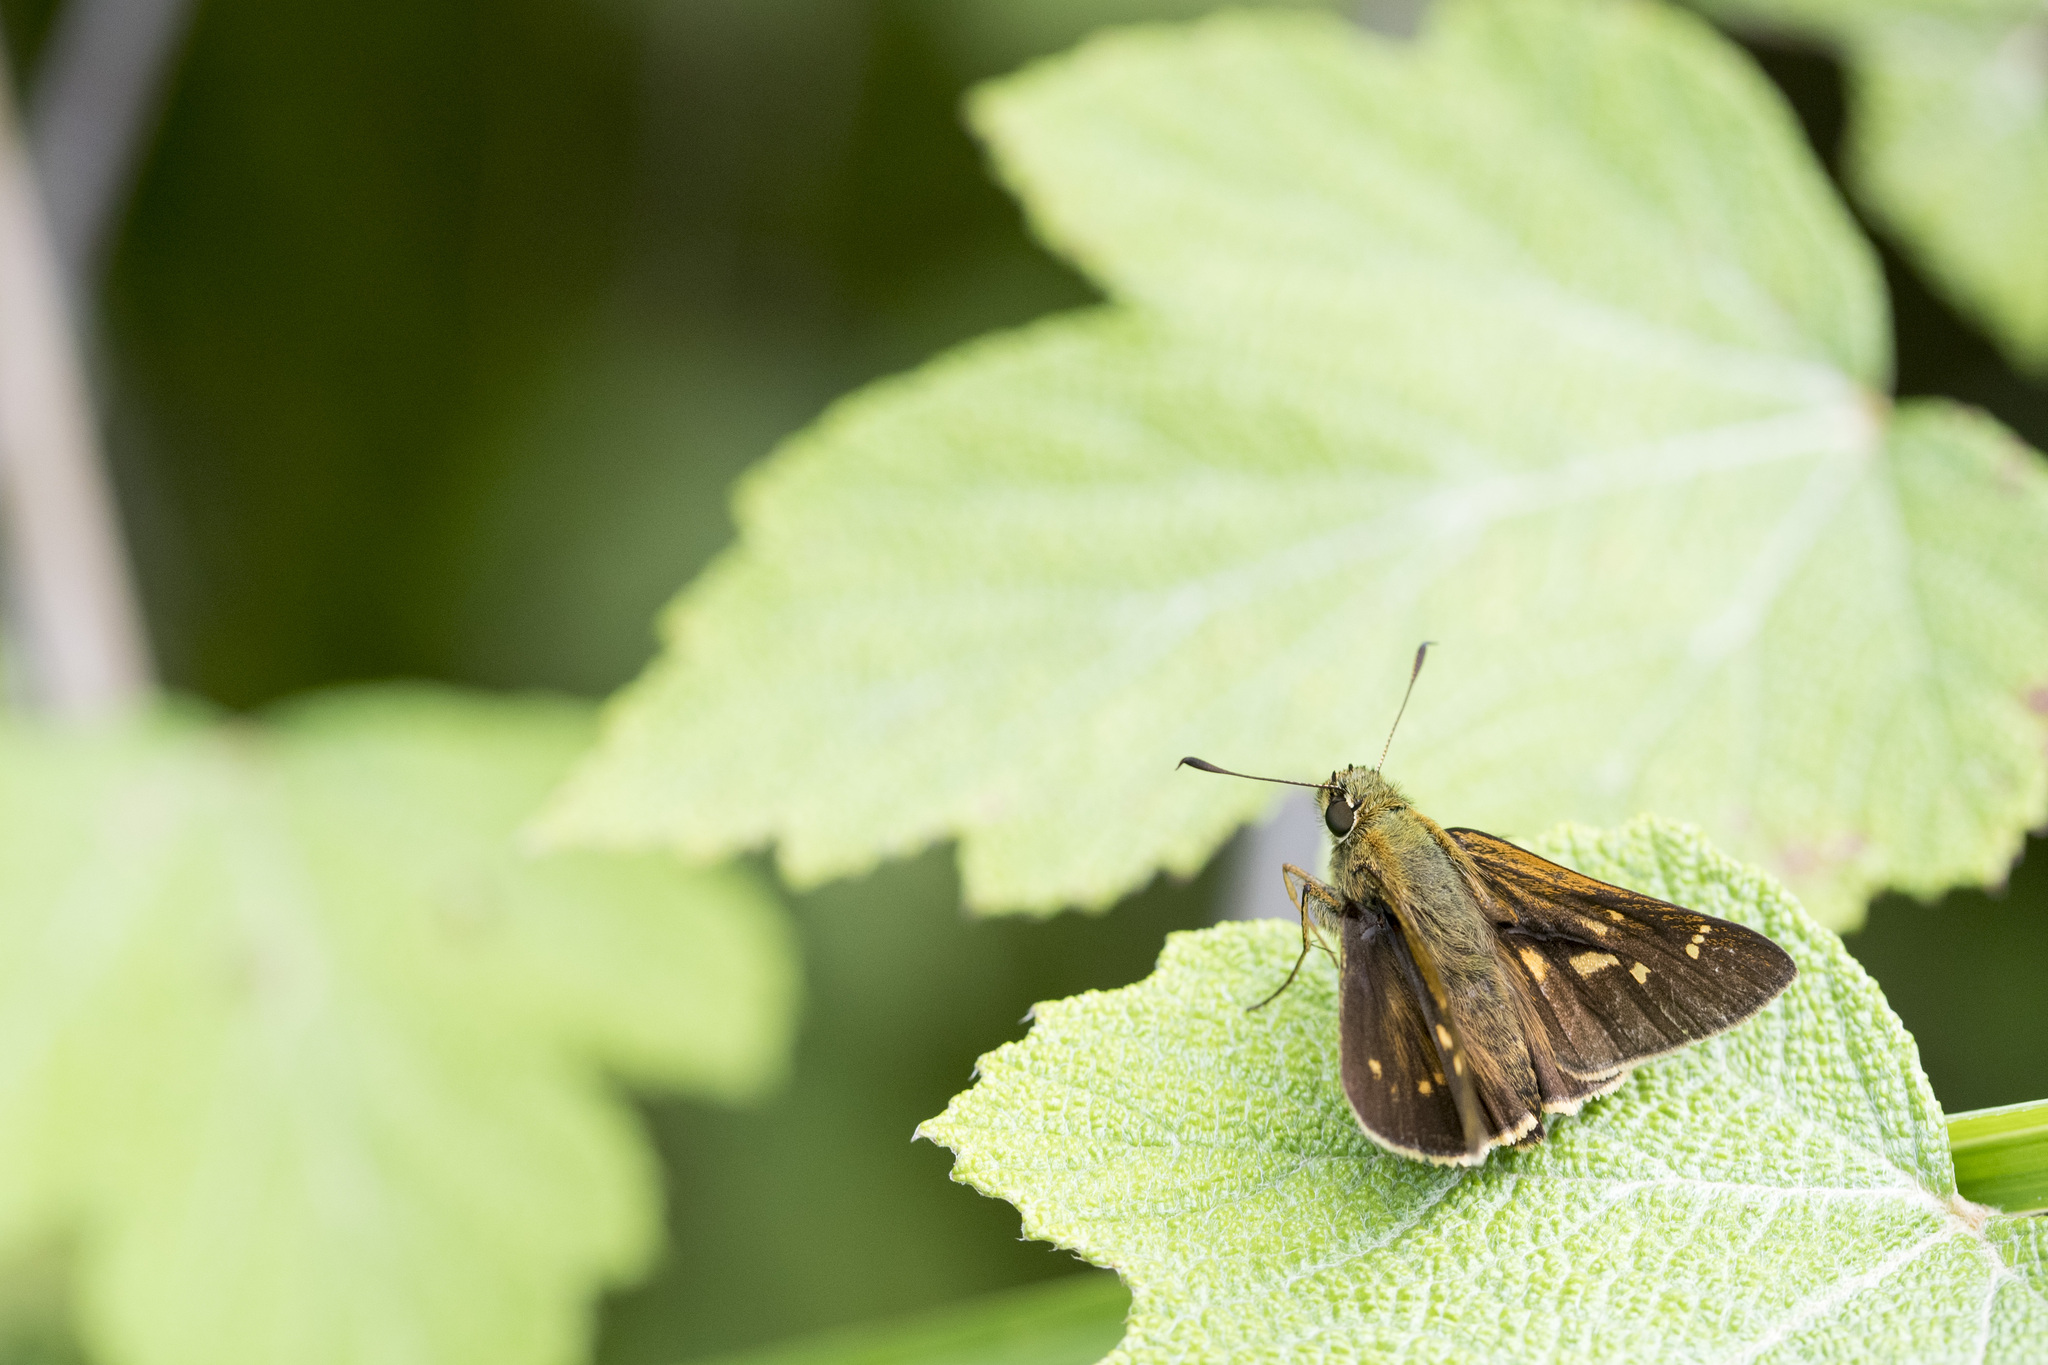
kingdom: Animalia
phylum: Arthropoda
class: Insecta
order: Lepidoptera
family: Hesperiidae
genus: Ochlodes
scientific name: Ochlodes niitakana
